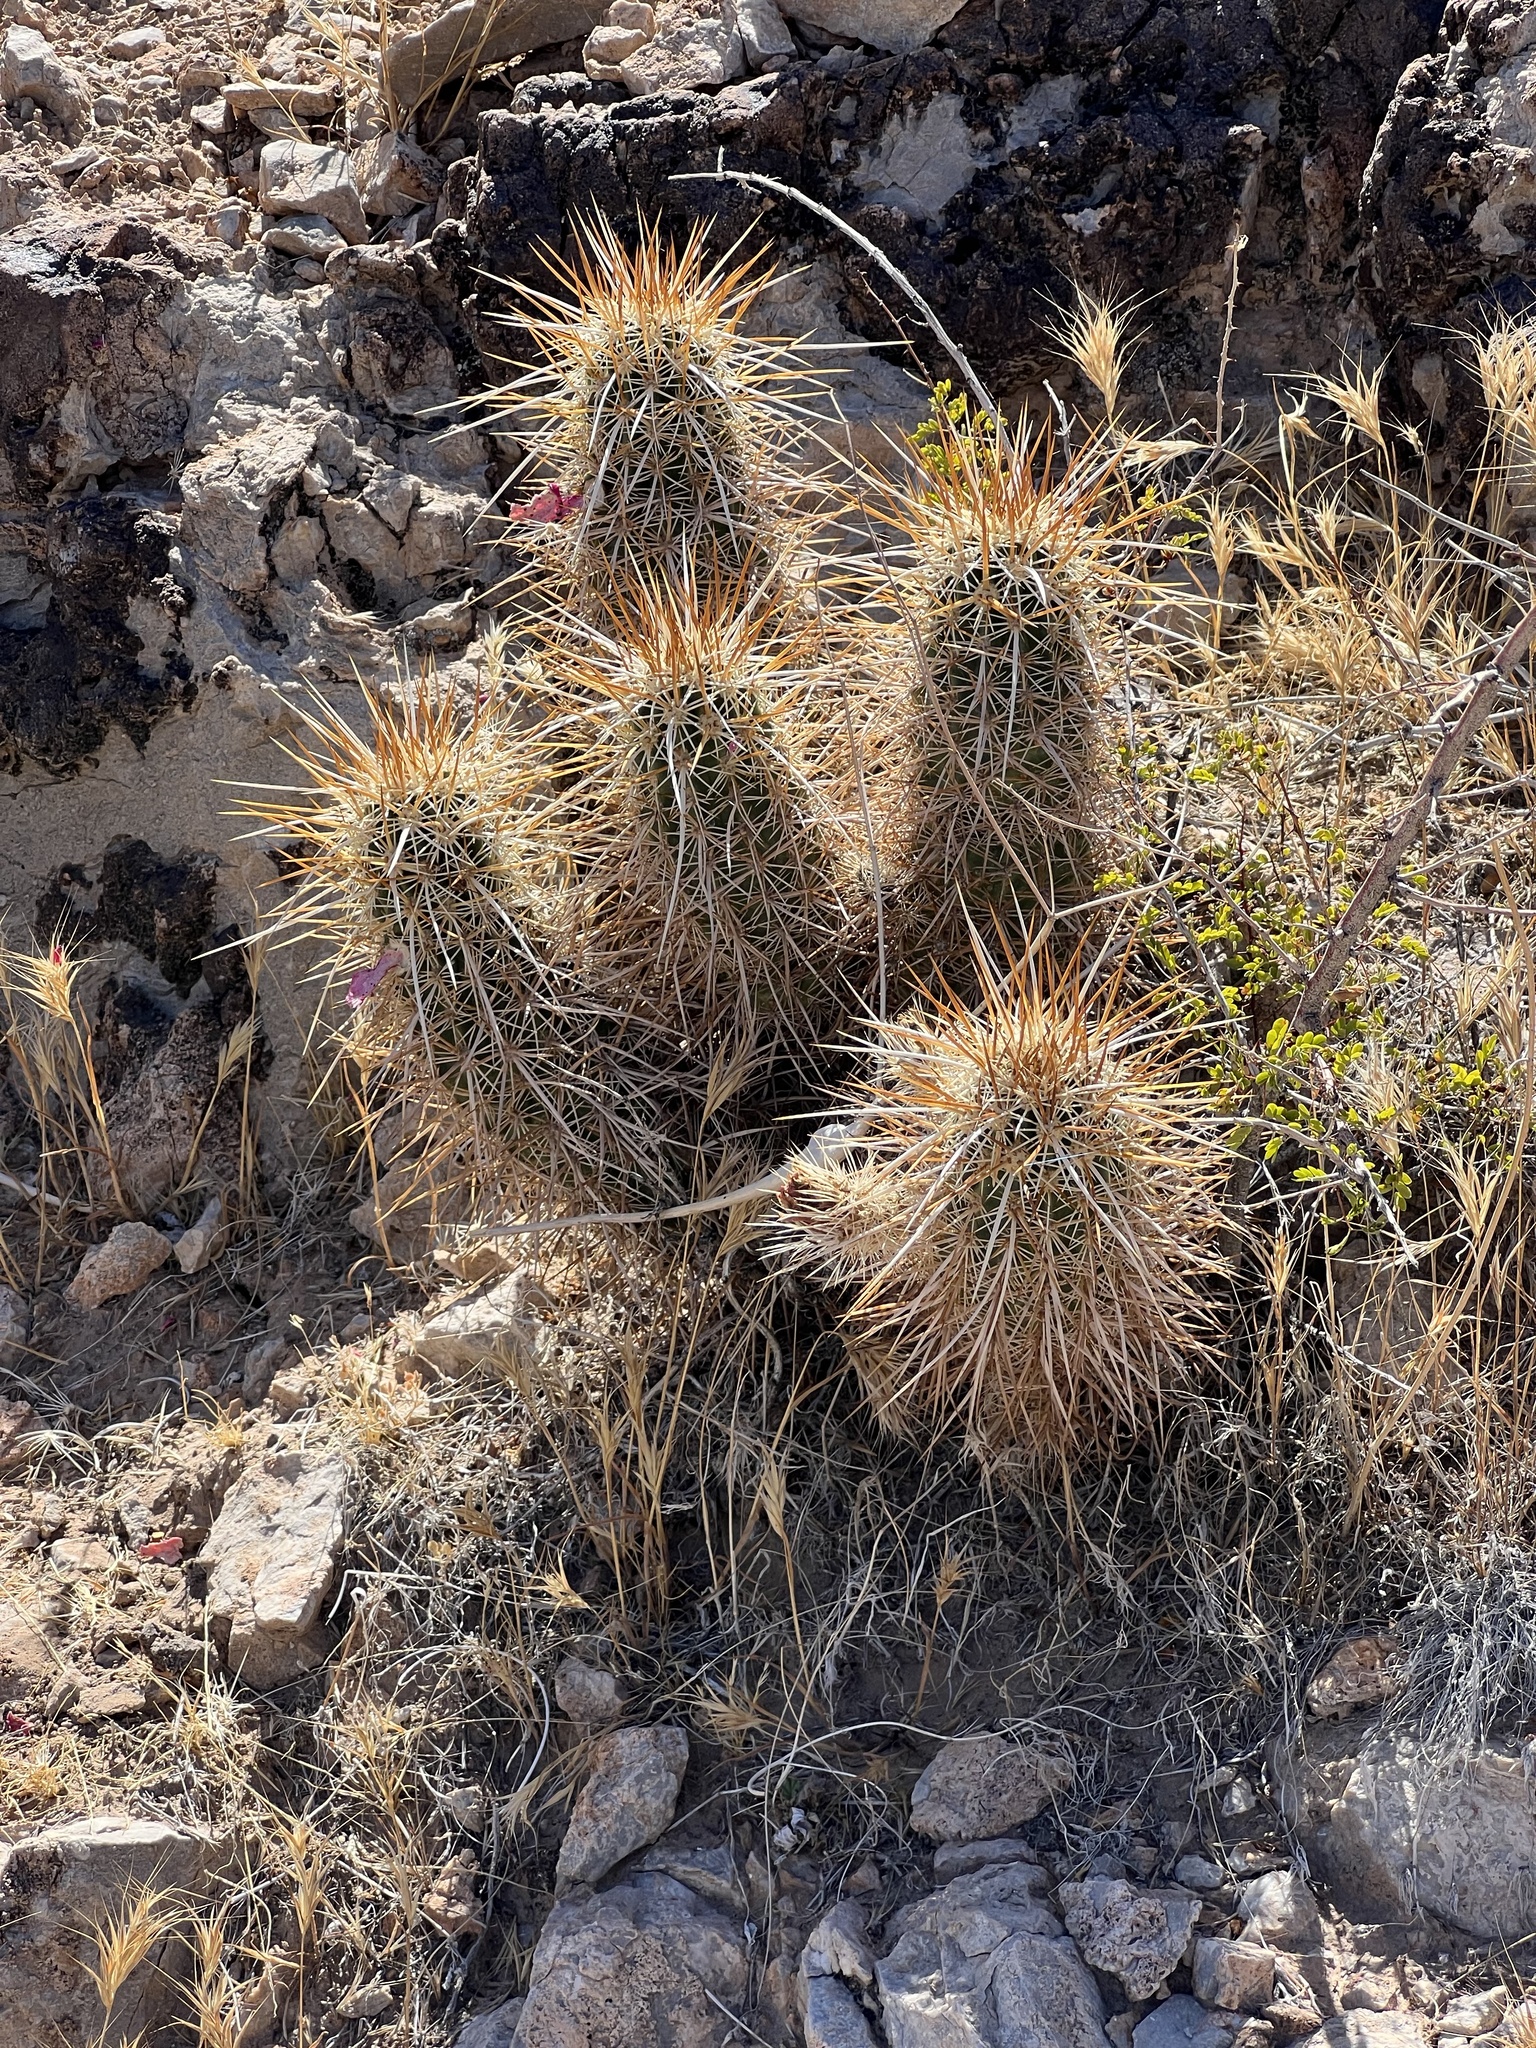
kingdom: Plantae
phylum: Tracheophyta
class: Magnoliopsida
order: Caryophyllales
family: Cactaceae
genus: Echinocereus
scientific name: Echinocereus engelmannii
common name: Engelmann's hedgehog cactus
